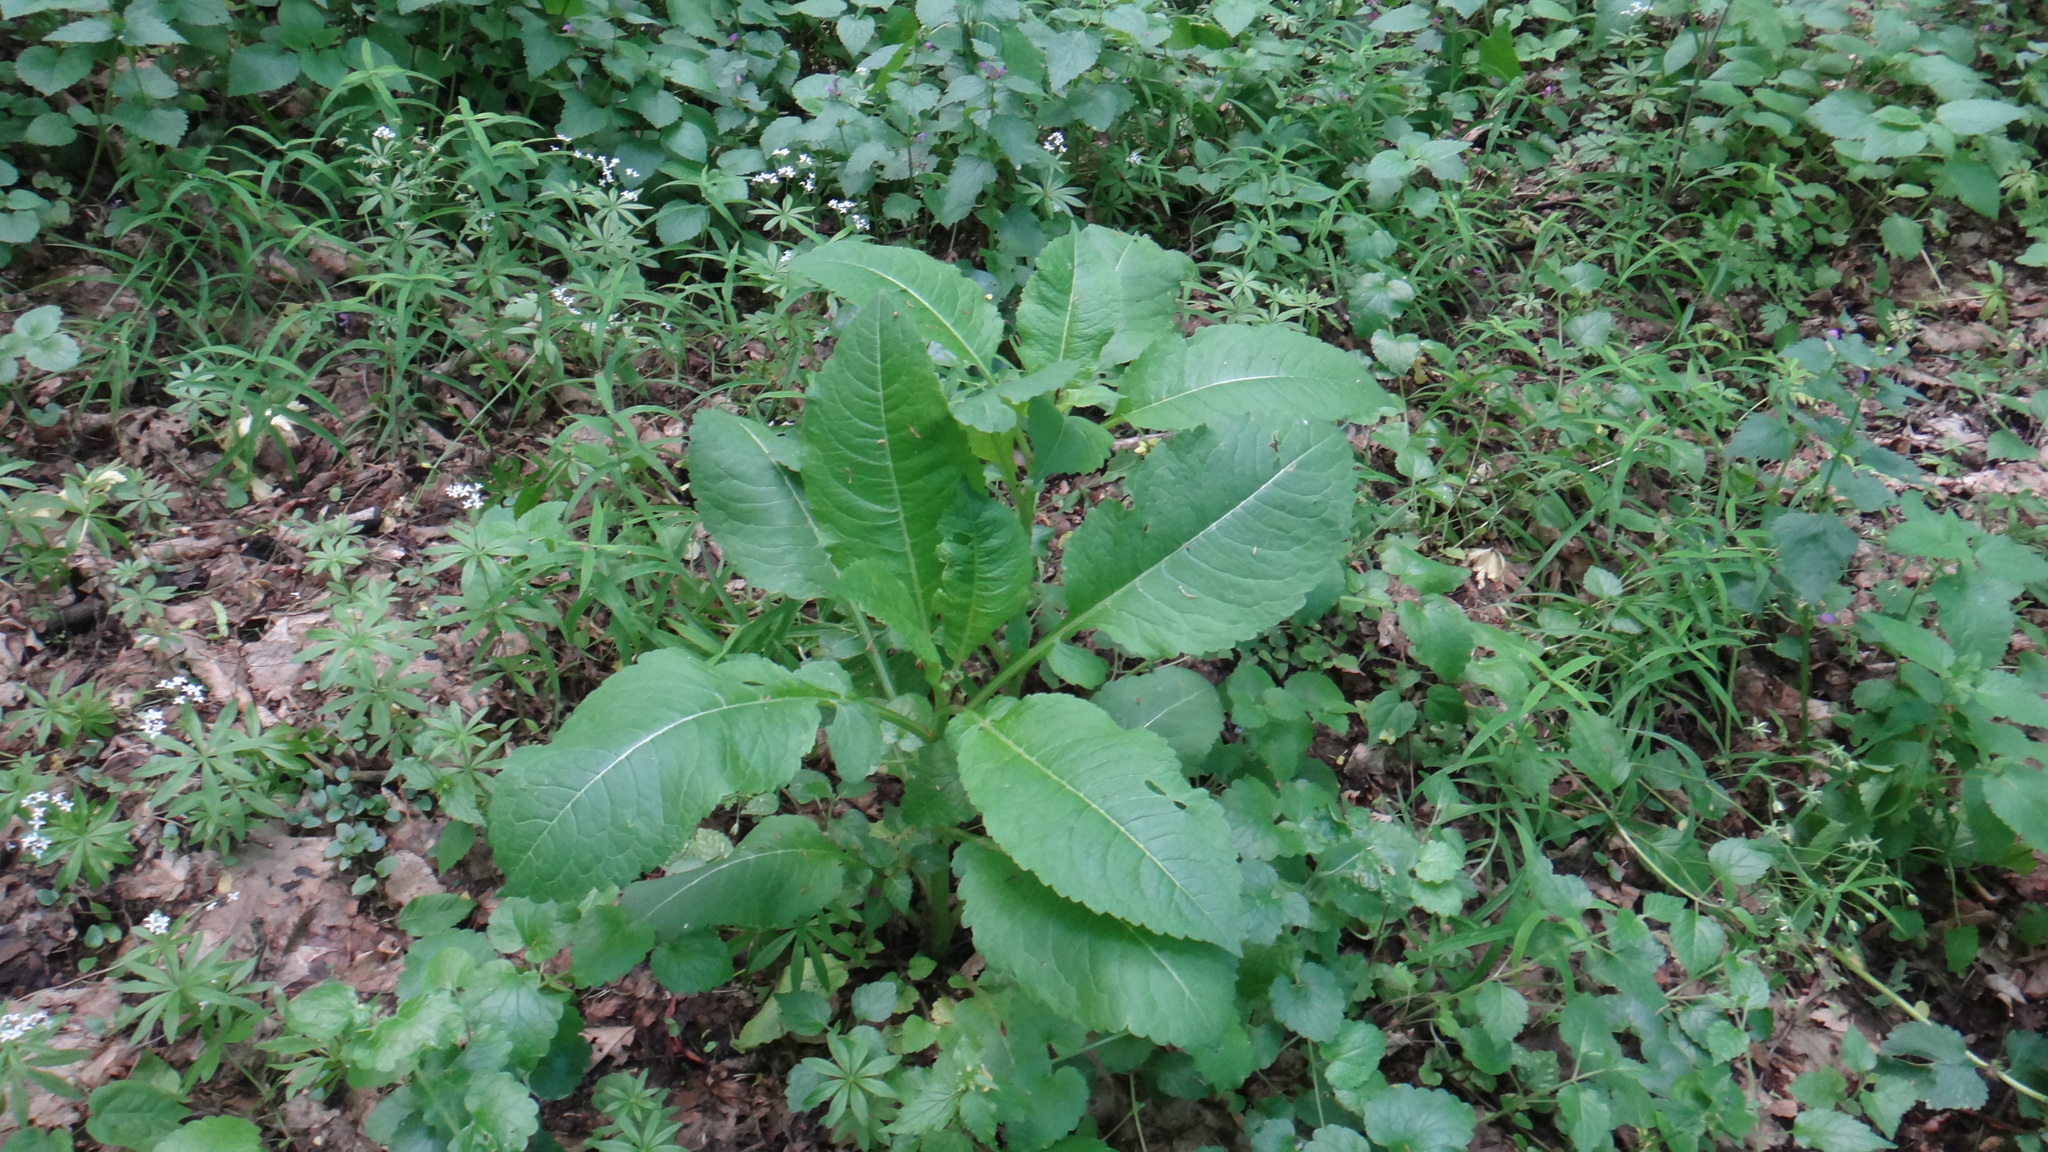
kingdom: Plantae
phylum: Tracheophyta
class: Magnoliopsida
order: Dipsacales
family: Caprifoliaceae
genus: Dipsacus
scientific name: Dipsacus pilosus
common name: Small teasel
